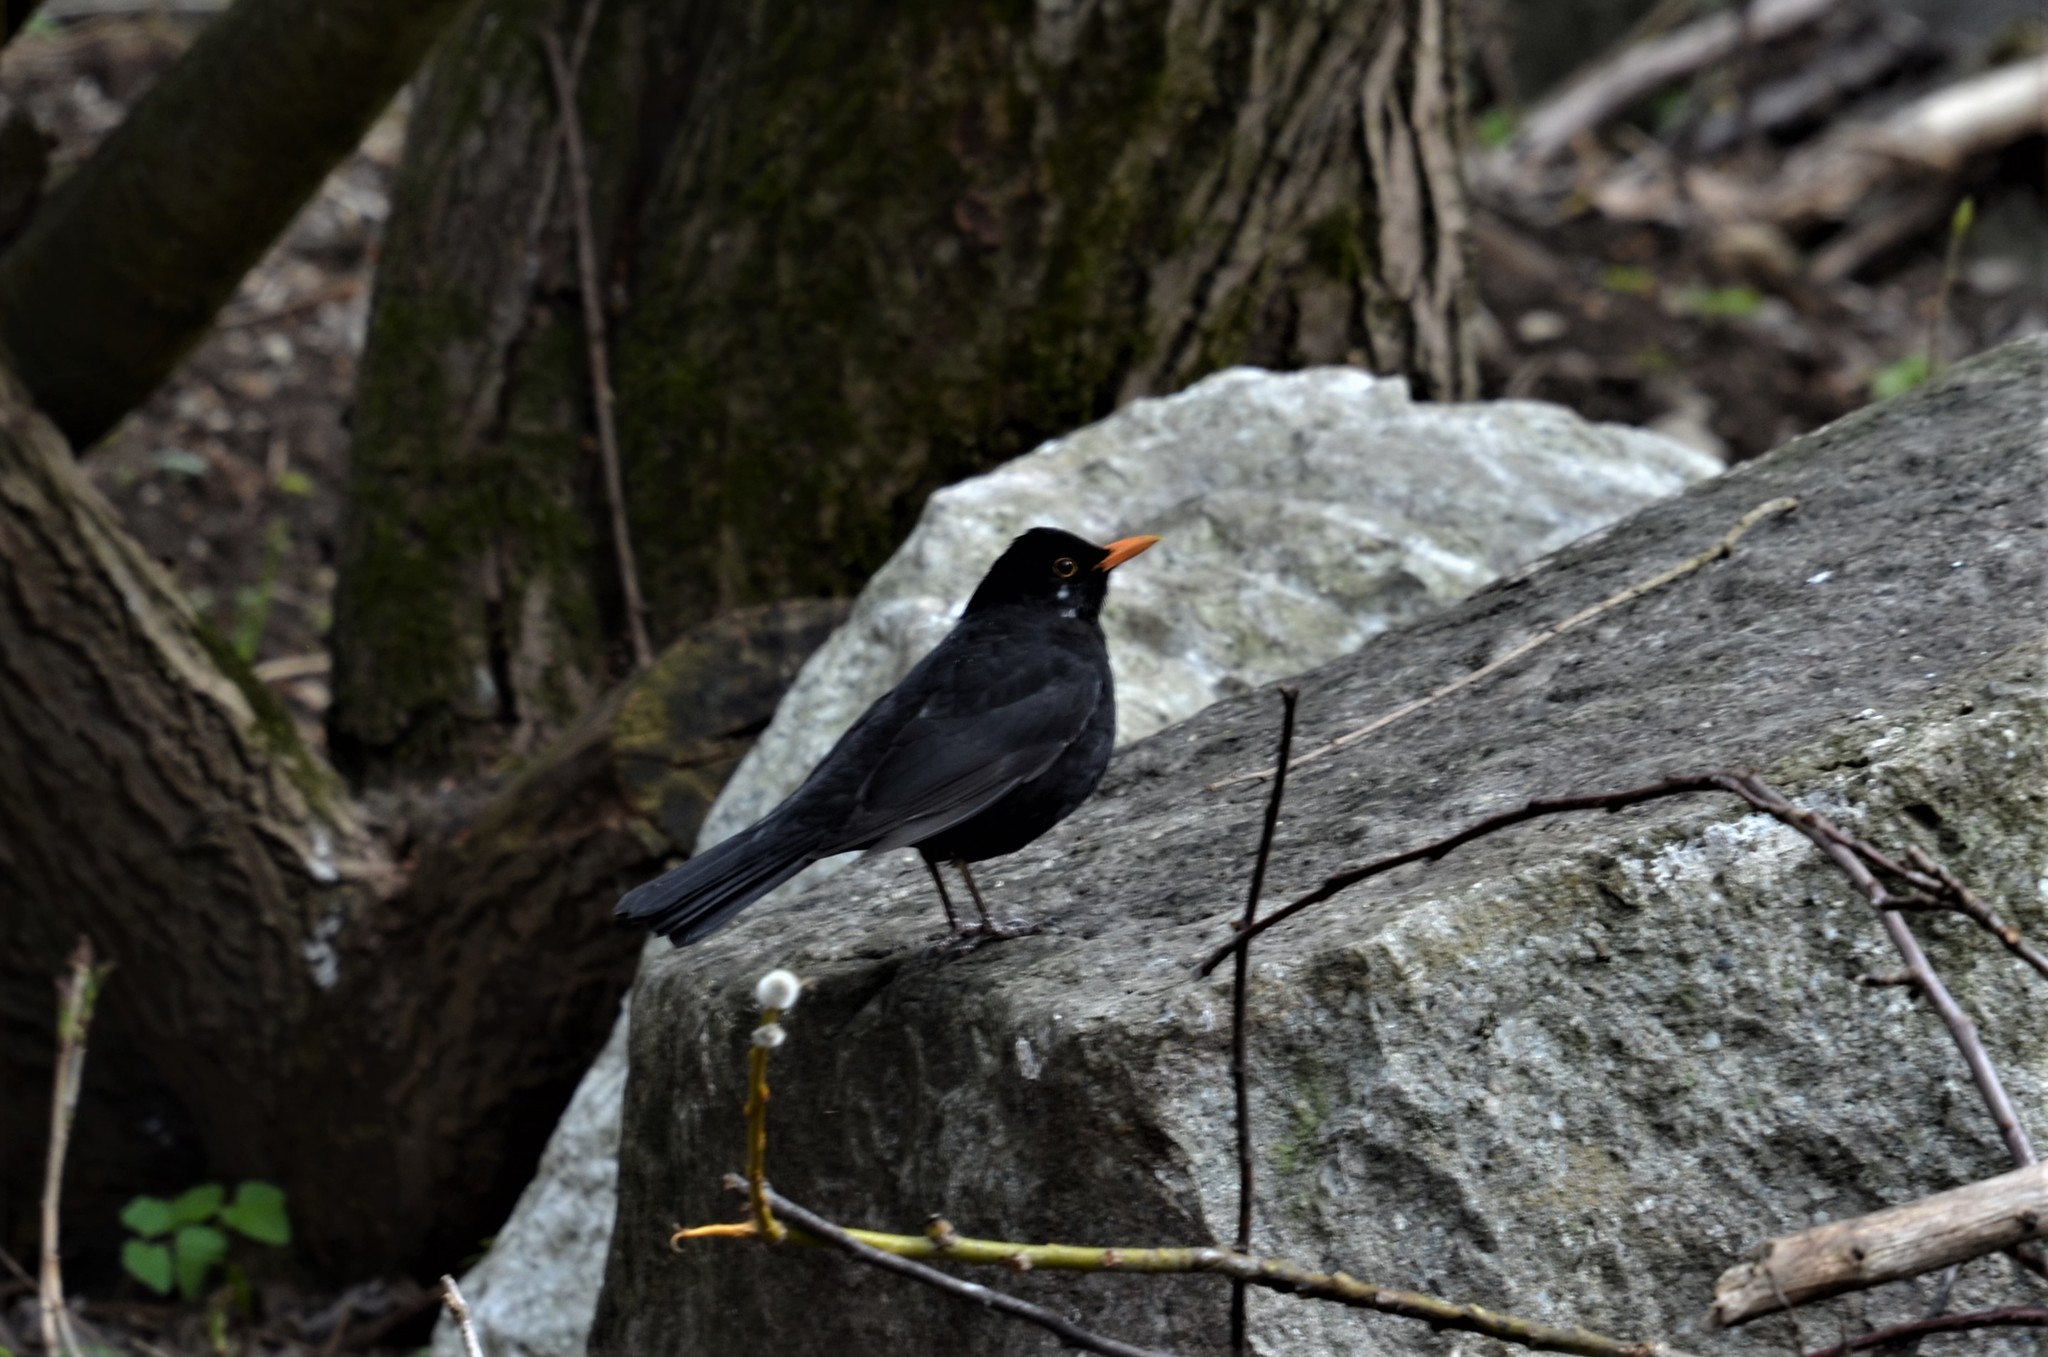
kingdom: Animalia
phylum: Chordata
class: Aves
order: Passeriformes
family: Turdidae
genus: Turdus
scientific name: Turdus merula
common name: Common blackbird
